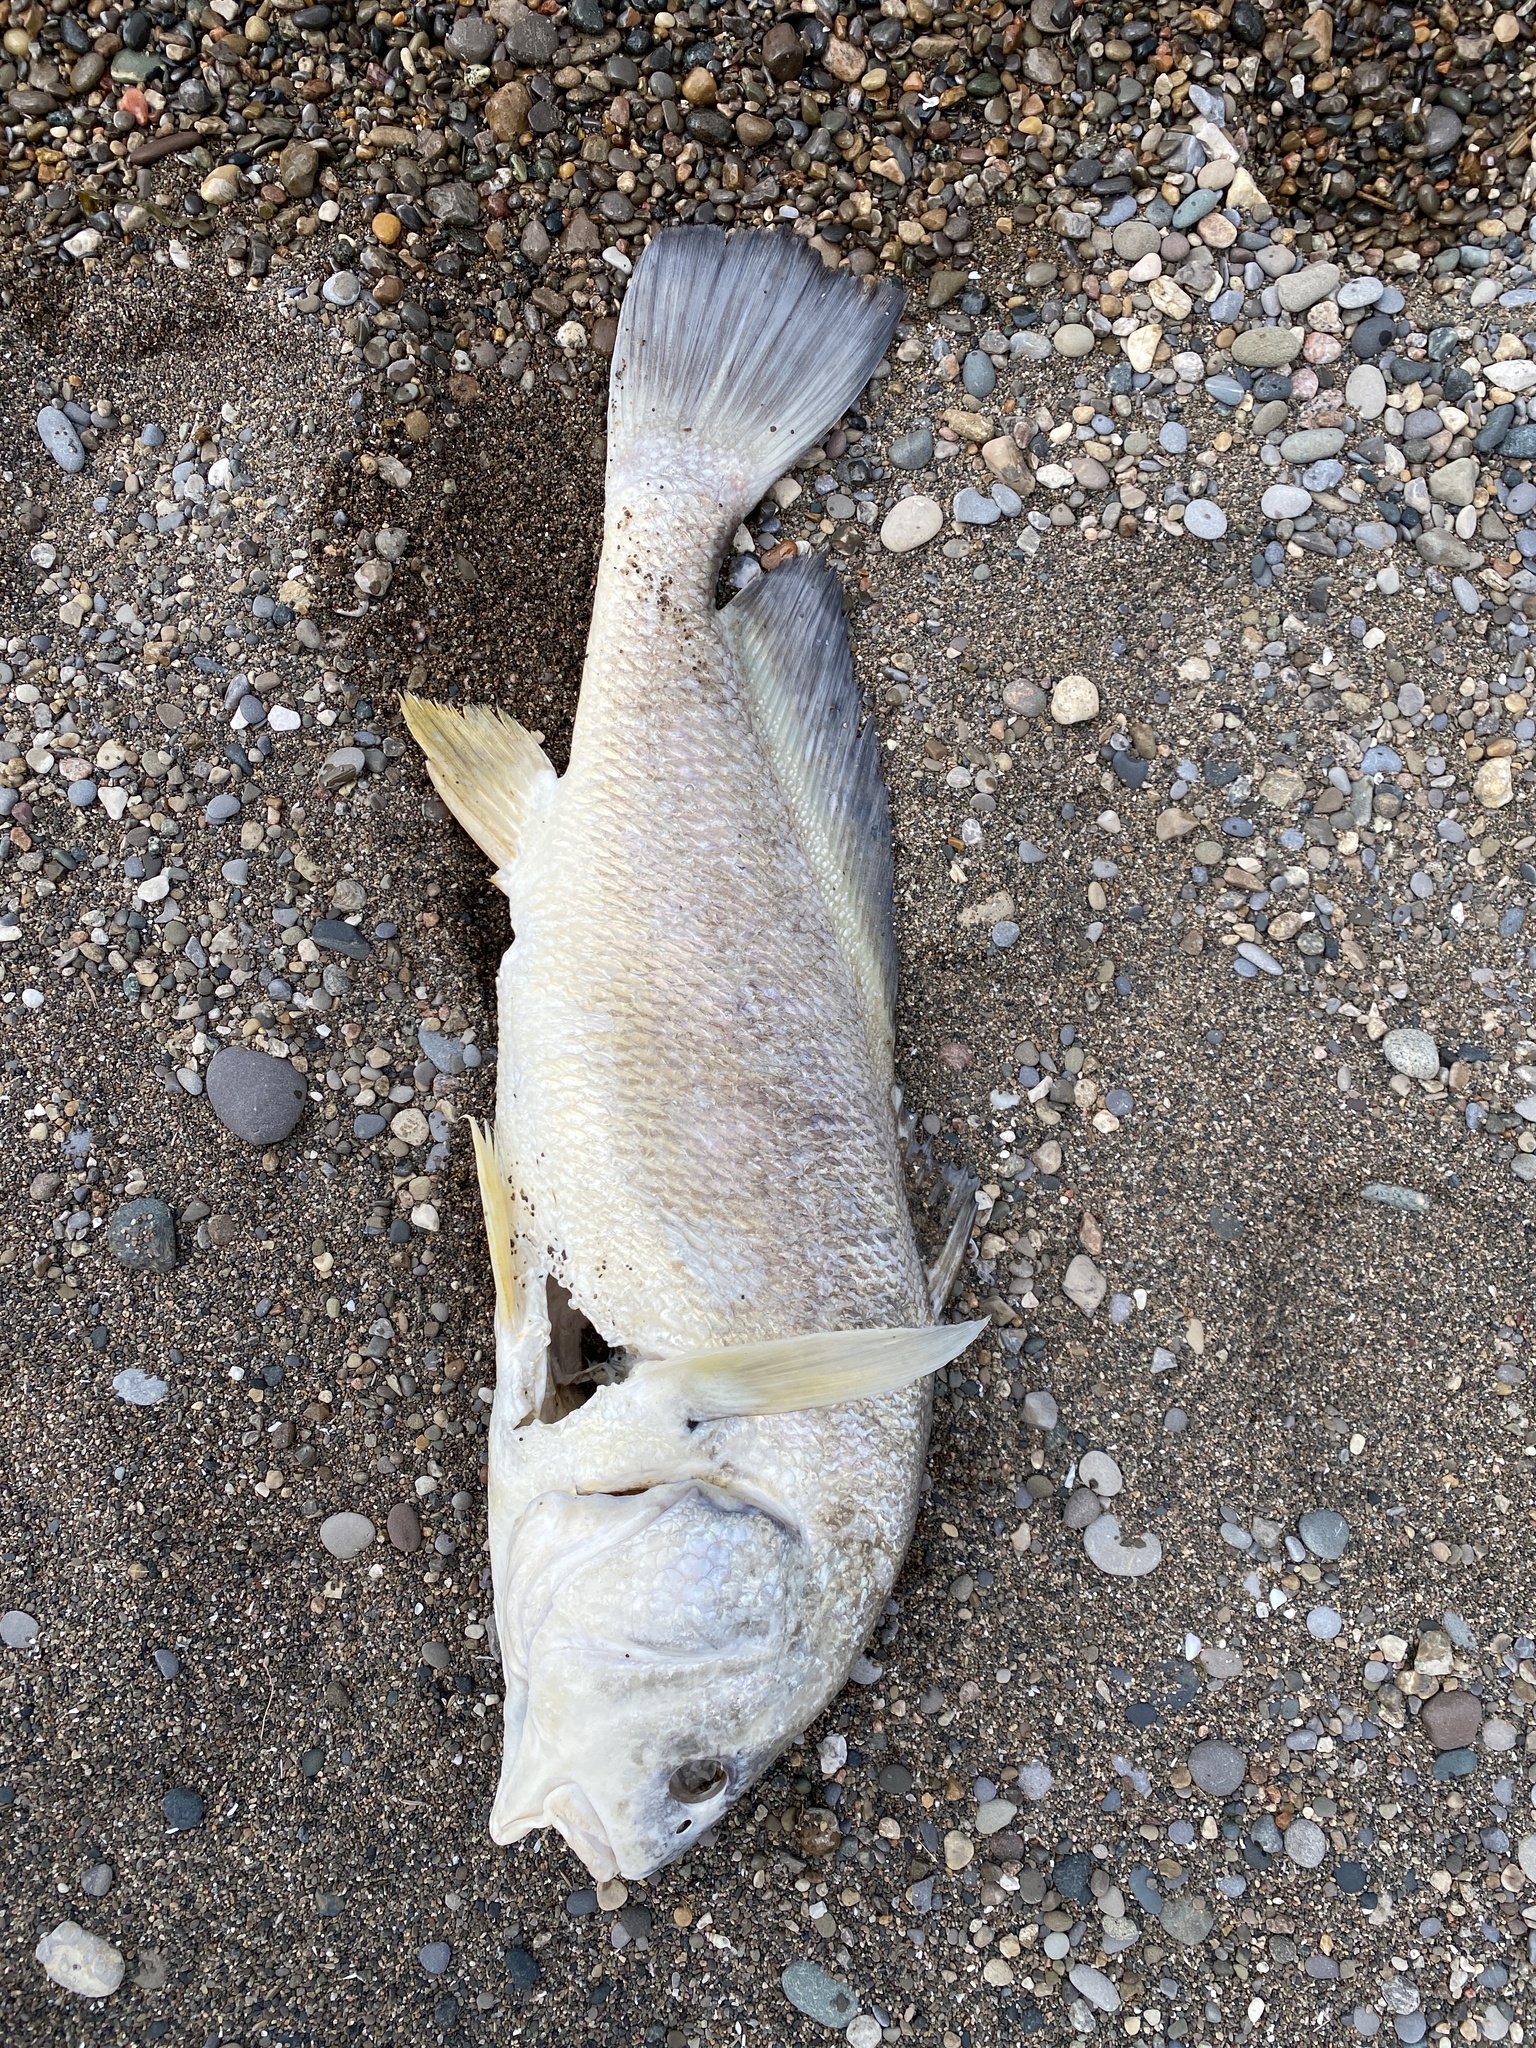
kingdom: Animalia
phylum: Chordata
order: Perciformes
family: Sciaenidae
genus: Aplodinotus
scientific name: Aplodinotus grunniens
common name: Freshwater drum
